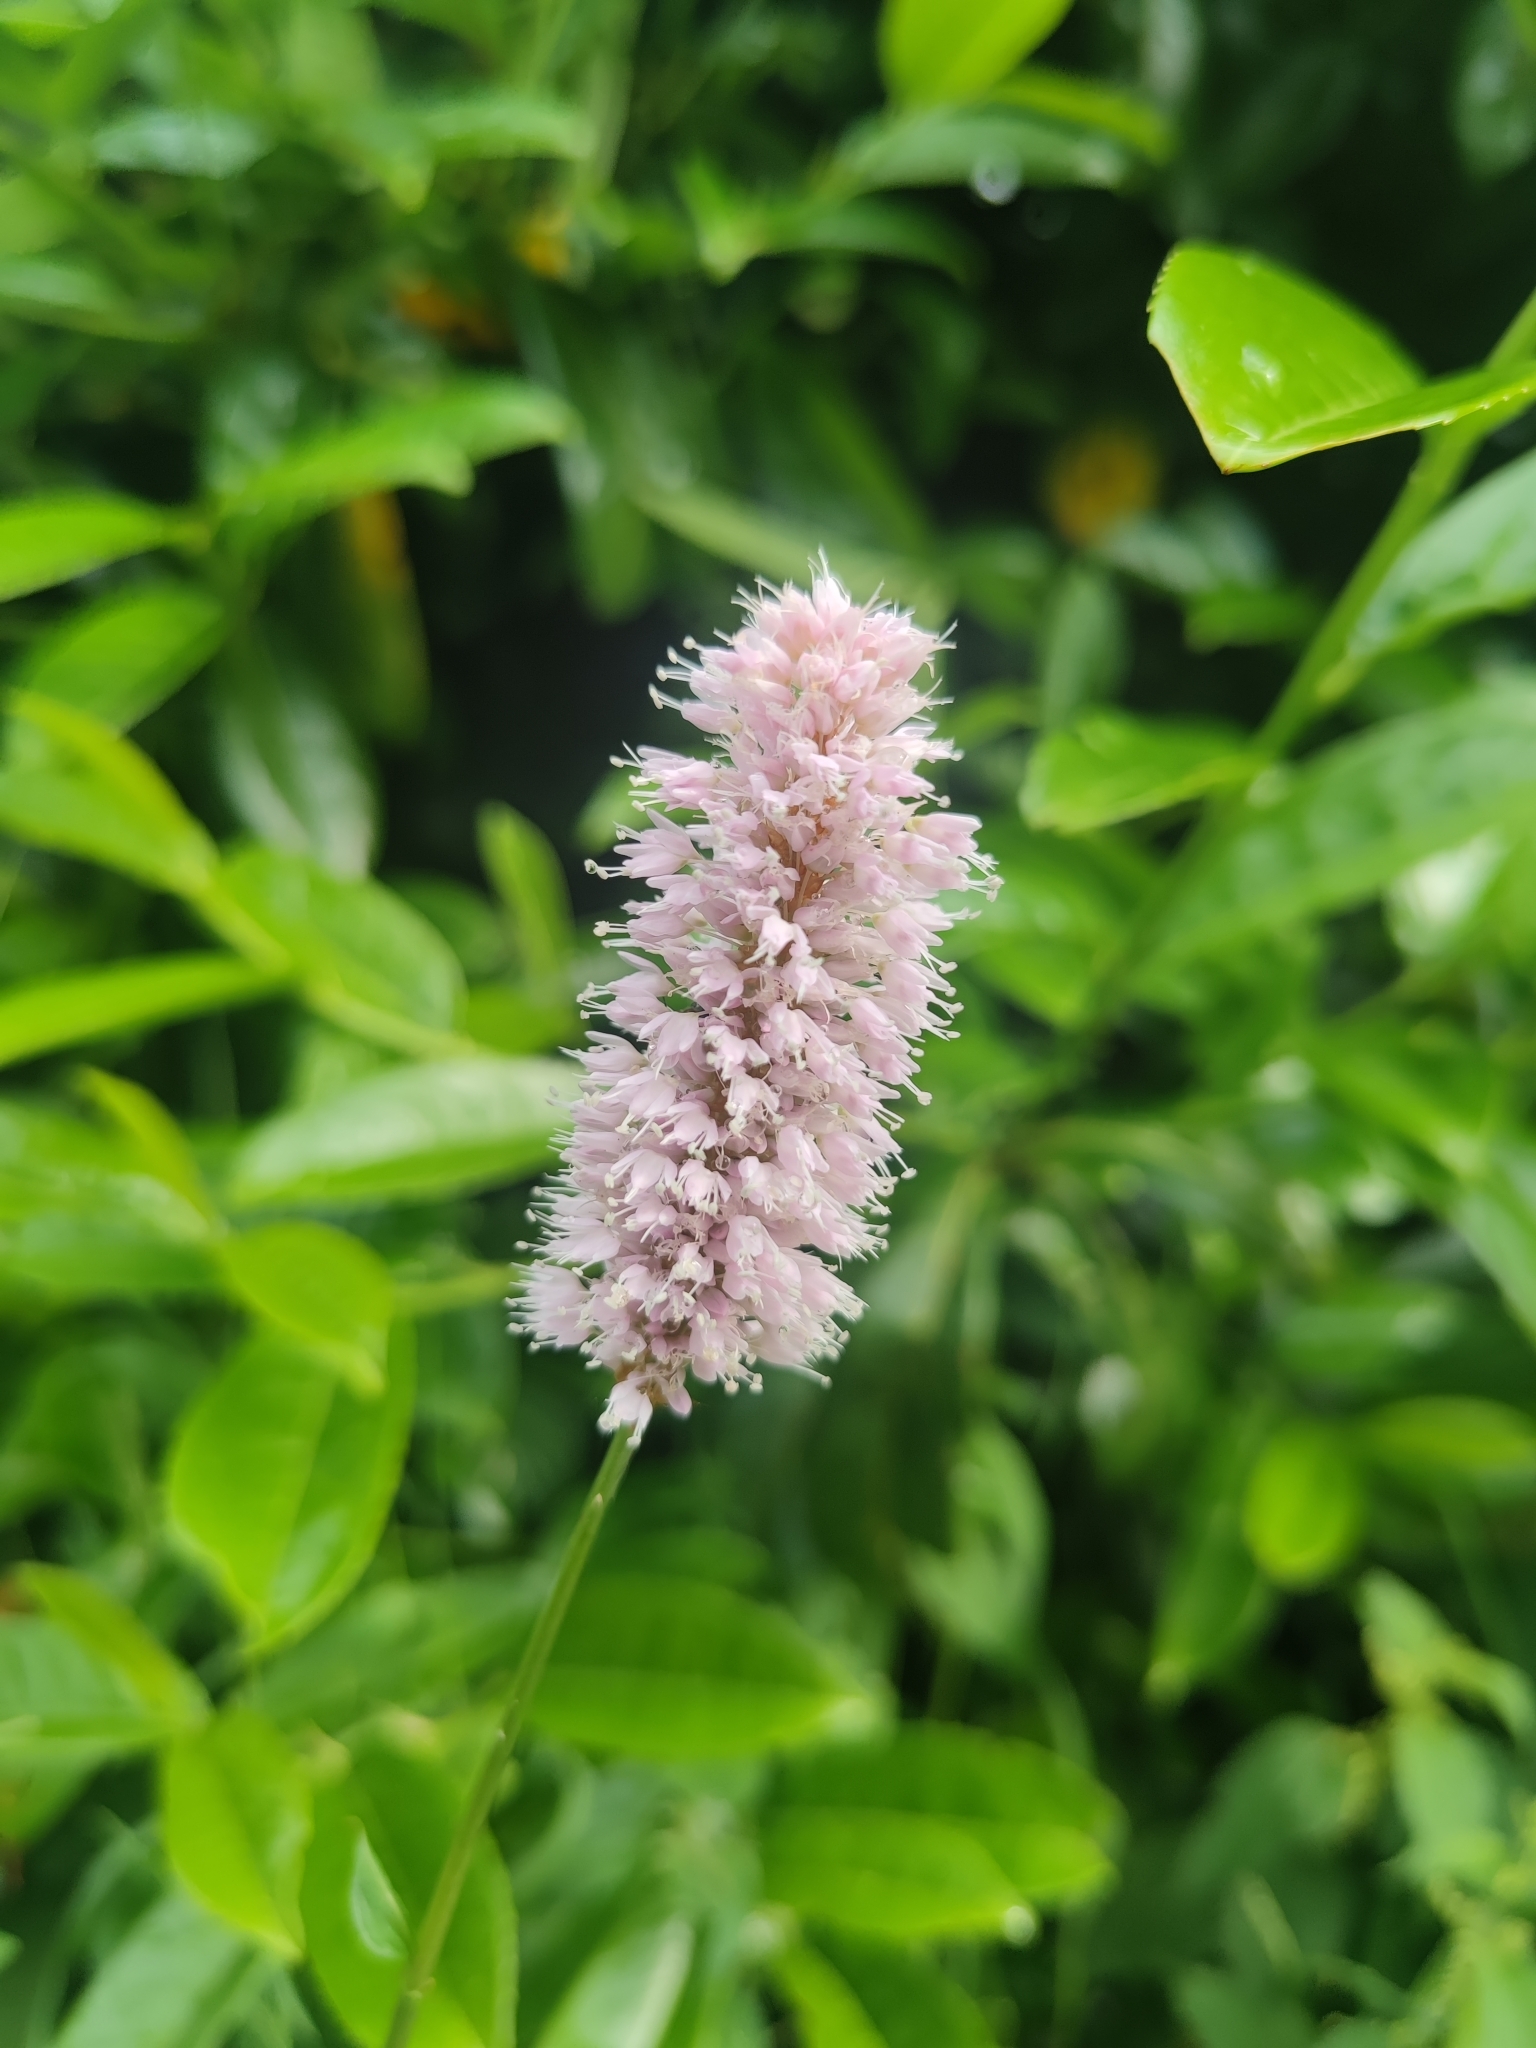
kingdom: Plantae
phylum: Tracheophyta
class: Magnoliopsida
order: Caryophyllales
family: Polygonaceae
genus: Bistorta
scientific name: Bistorta officinalis
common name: Common bistort
